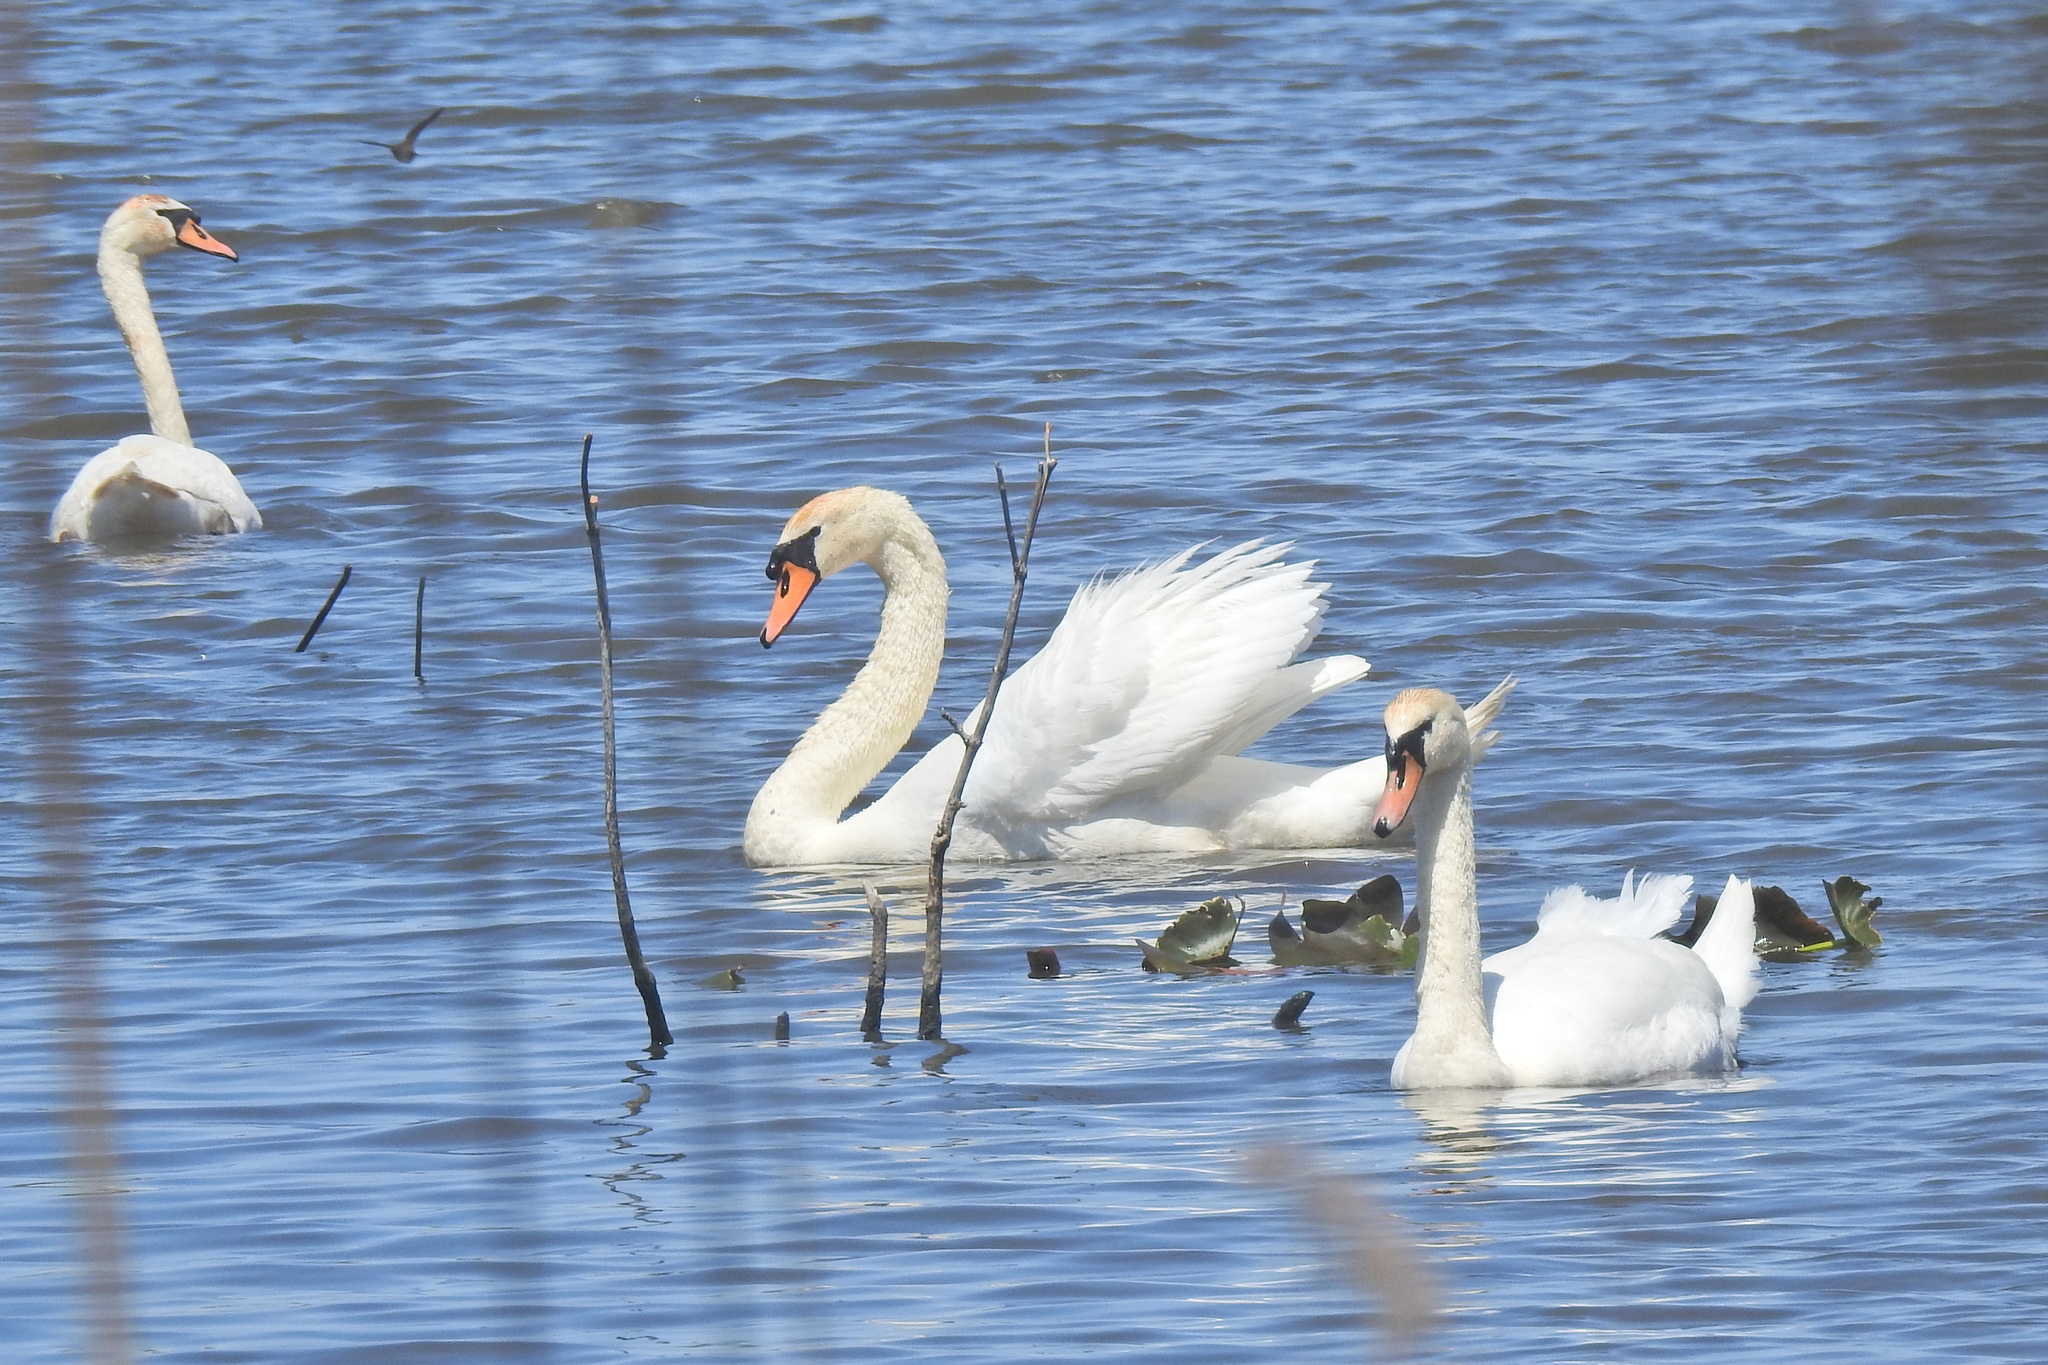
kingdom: Animalia
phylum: Chordata
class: Aves
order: Anseriformes
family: Anatidae
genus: Cygnus
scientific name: Cygnus olor
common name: Mute swan
